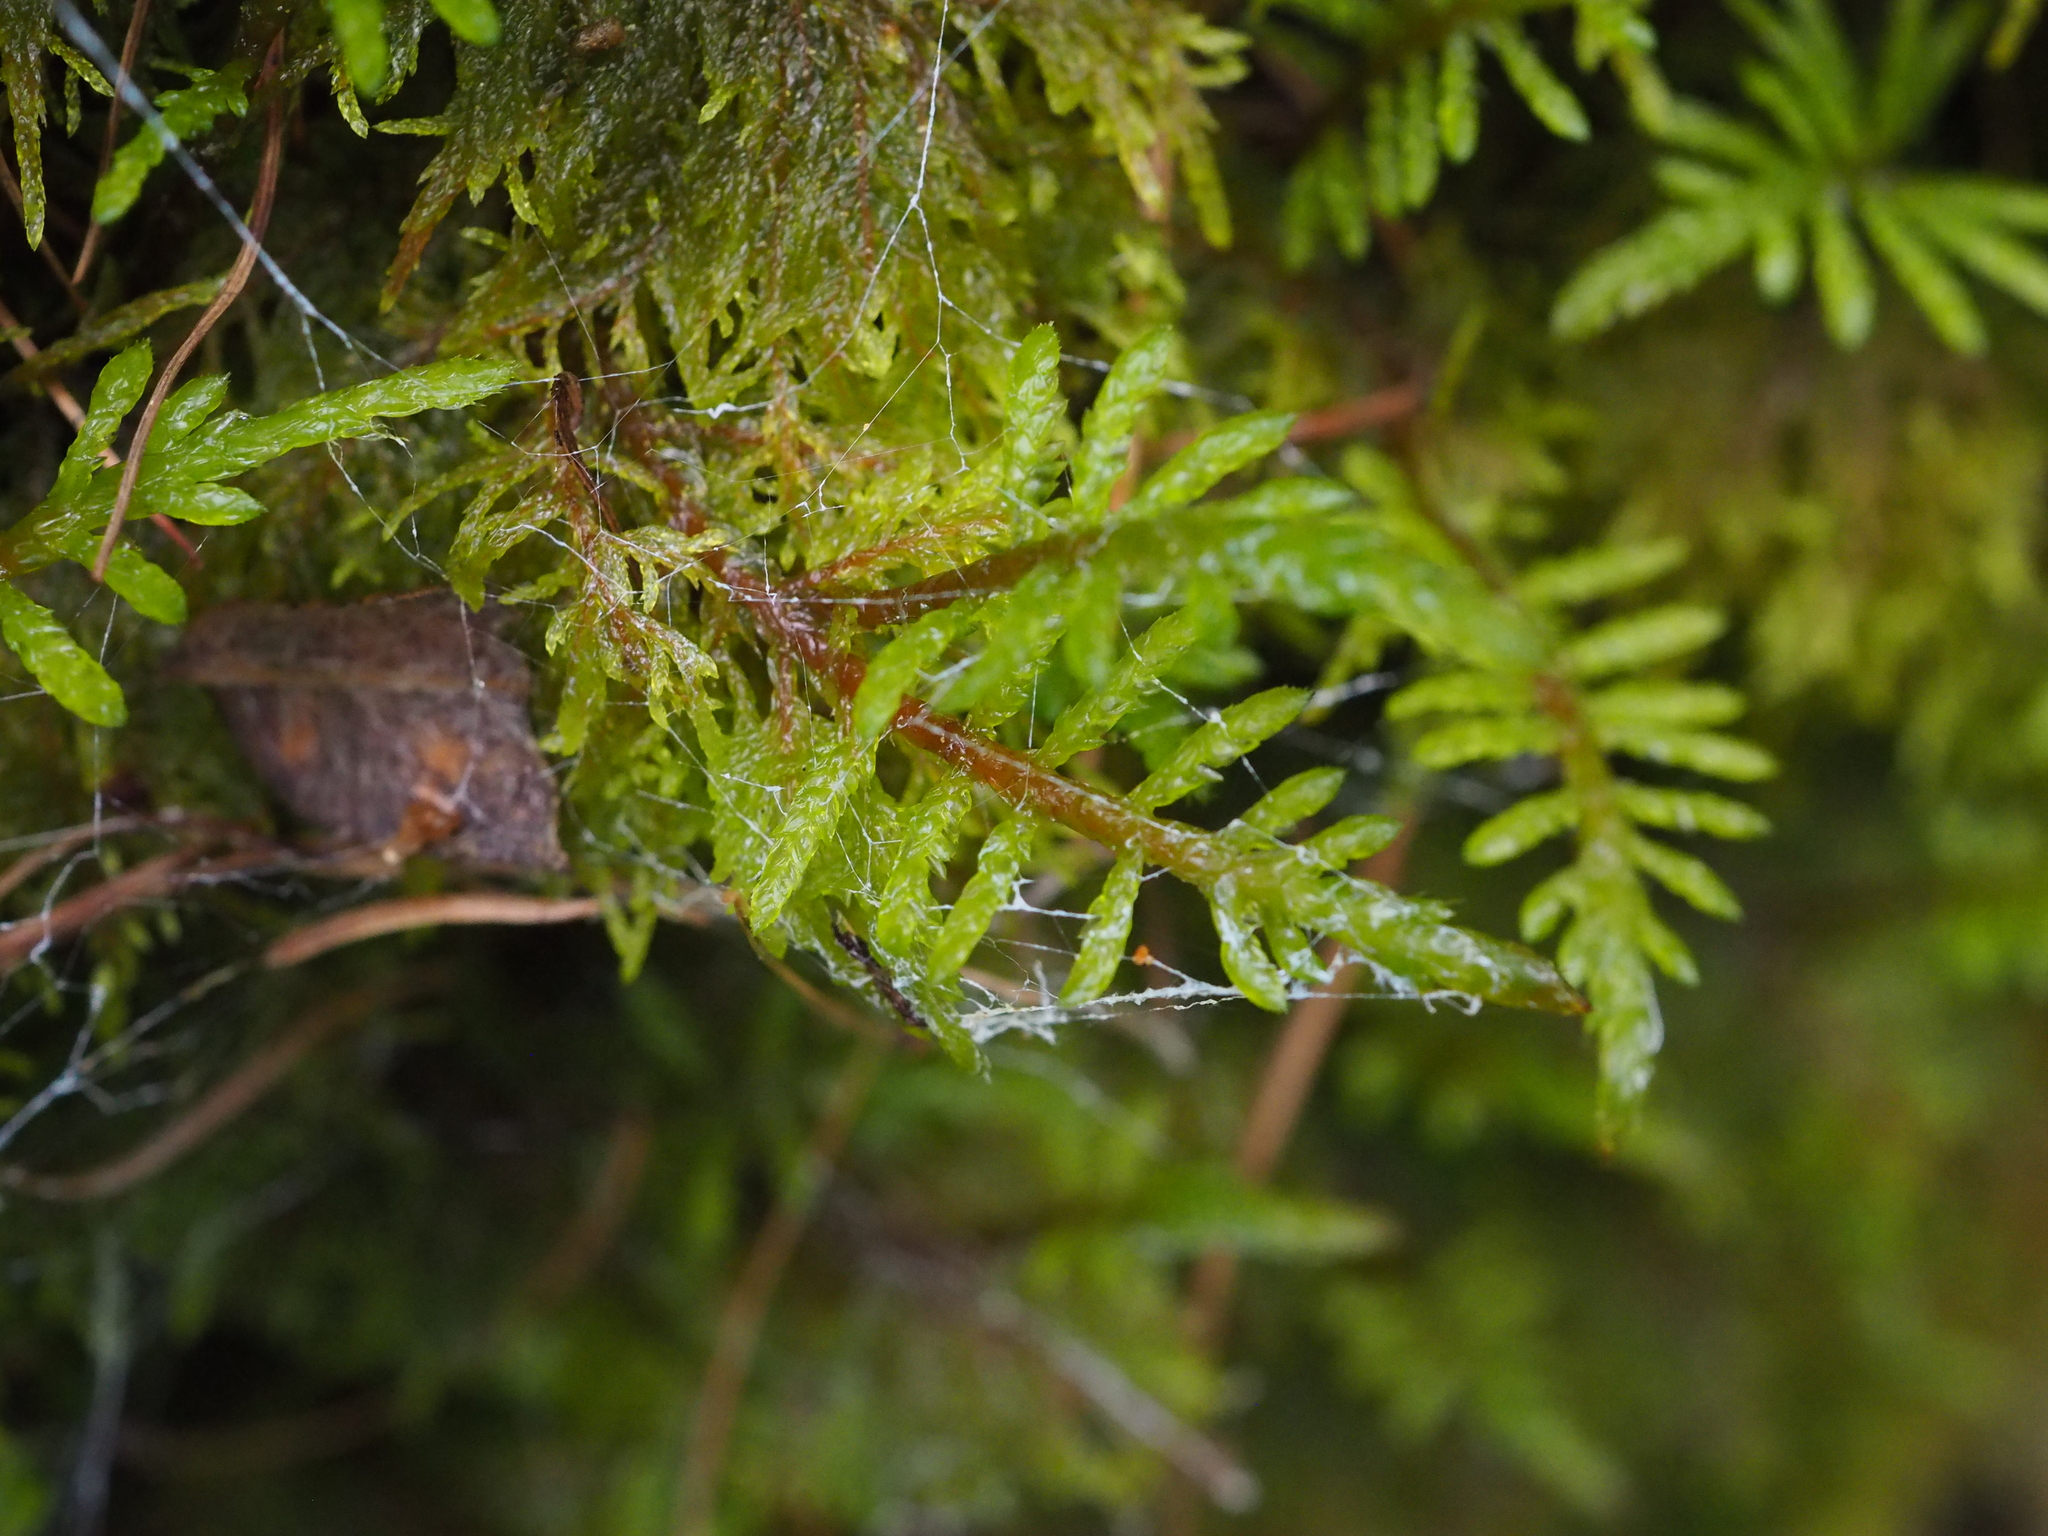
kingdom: Plantae
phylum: Bryophyta
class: Bryopsida
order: Hypnales
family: Hylocomiaceae
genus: Hylocomium
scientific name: Hylocomium splendens
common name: Stairstep moss
